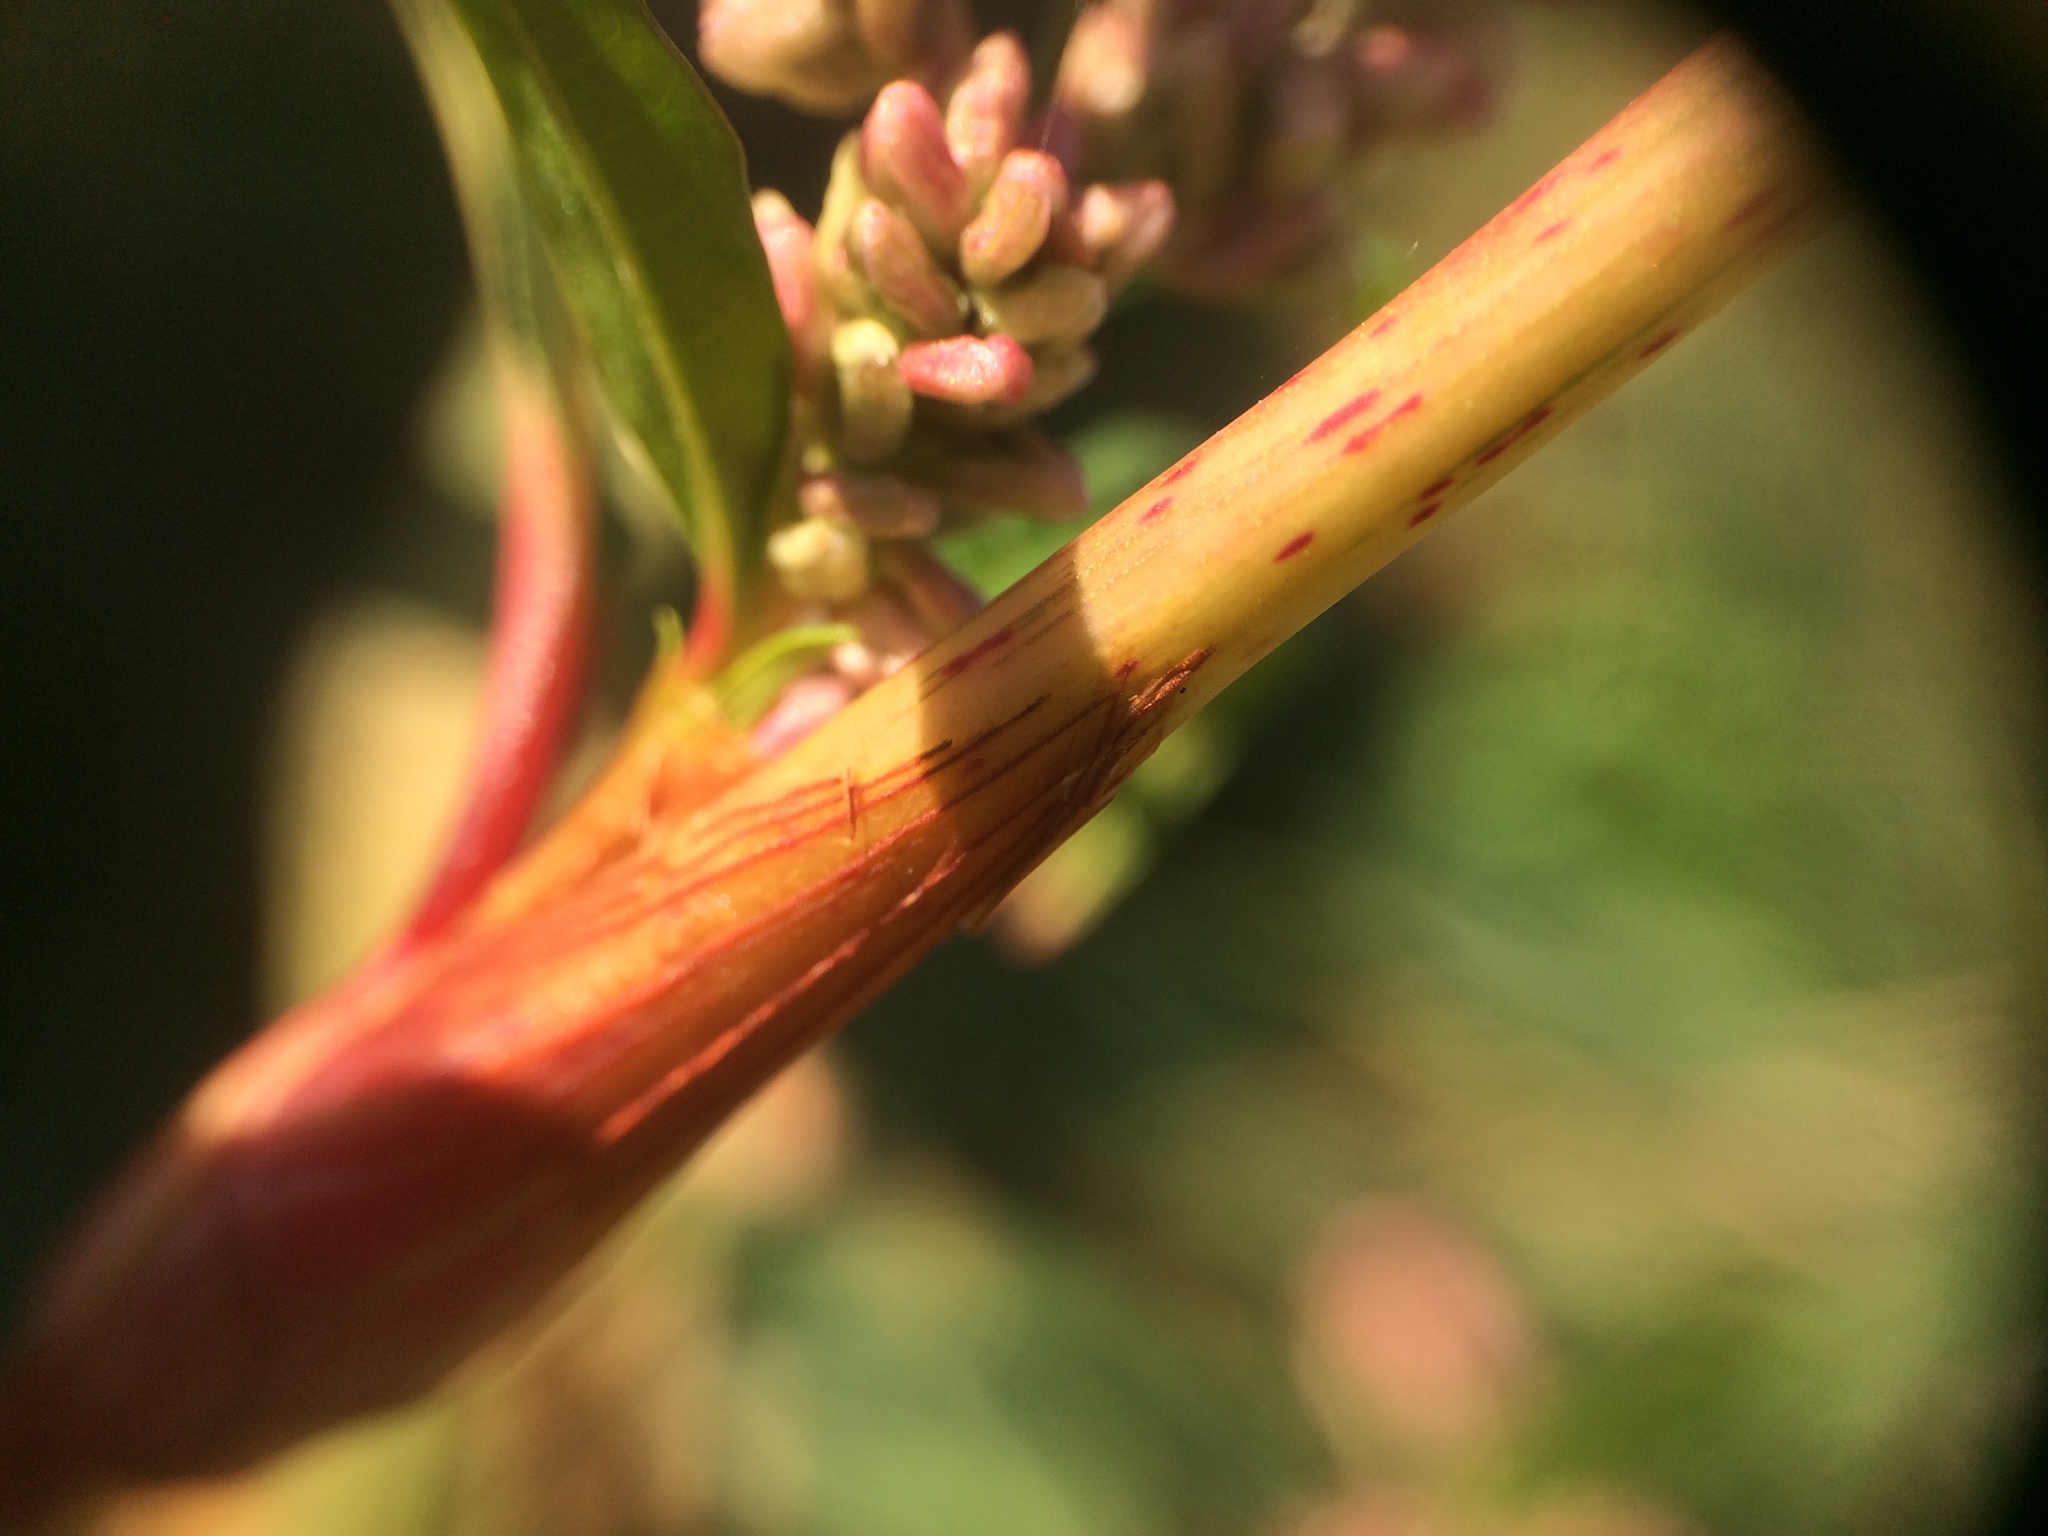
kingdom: Plantae
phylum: Tracheophyta
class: Magnoliopsida
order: Caryophyllales
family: Polygonaceae
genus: Persicaria
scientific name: Persicaria lapathifolia
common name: Curlytop knotweed
